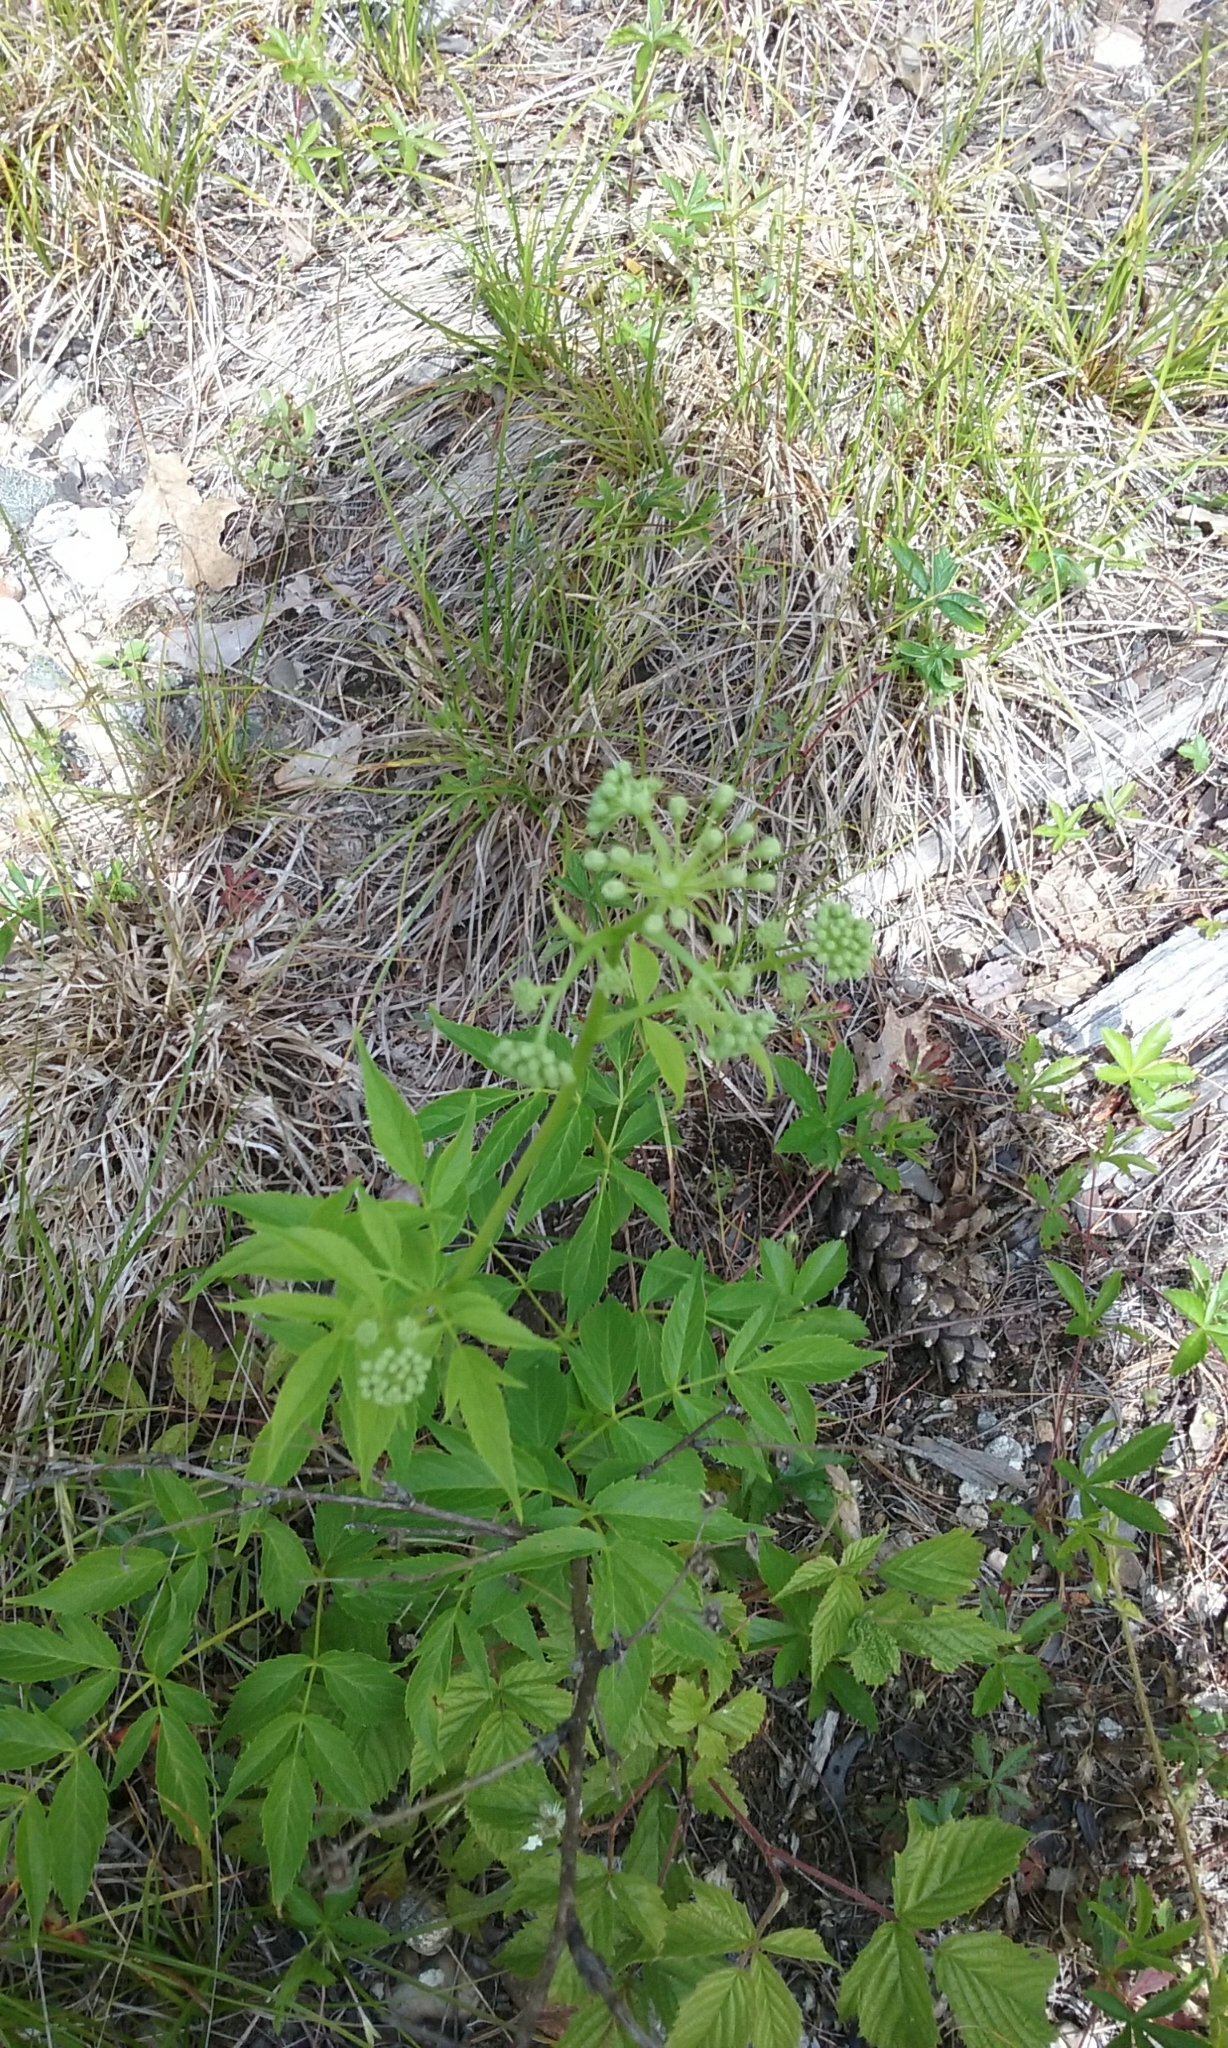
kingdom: Plantae
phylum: Tracheophyta
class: Magnoliopsida
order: Apiales
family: Araliaceae
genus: Aralia
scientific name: Aralia hispida
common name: Bristly sarsaparilla
